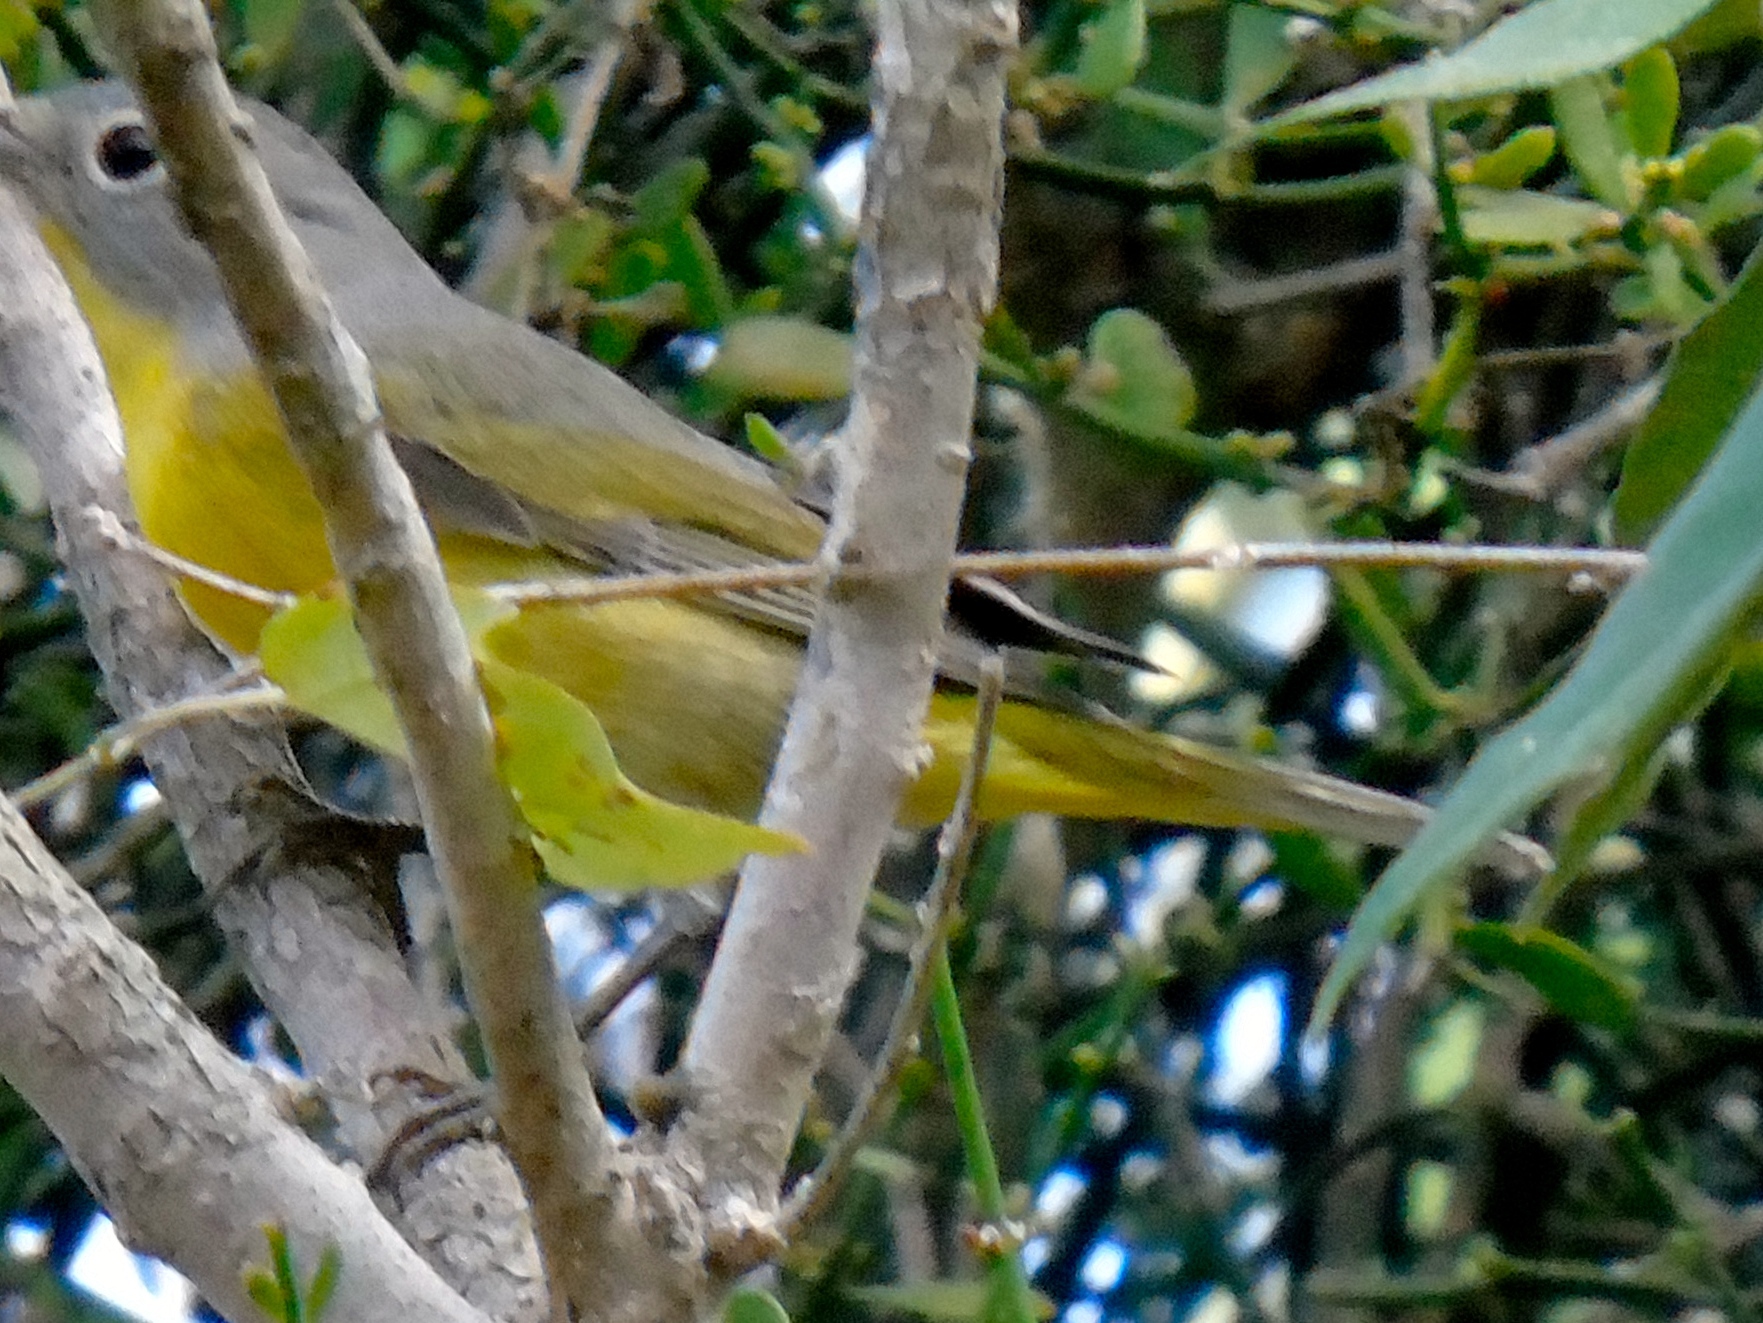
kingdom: Animalia
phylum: Chordata
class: Aves
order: Passeriformes
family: Parulidae
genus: Leiothlypis
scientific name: Leiothlypis ruficapilla
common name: Nashville warbler
